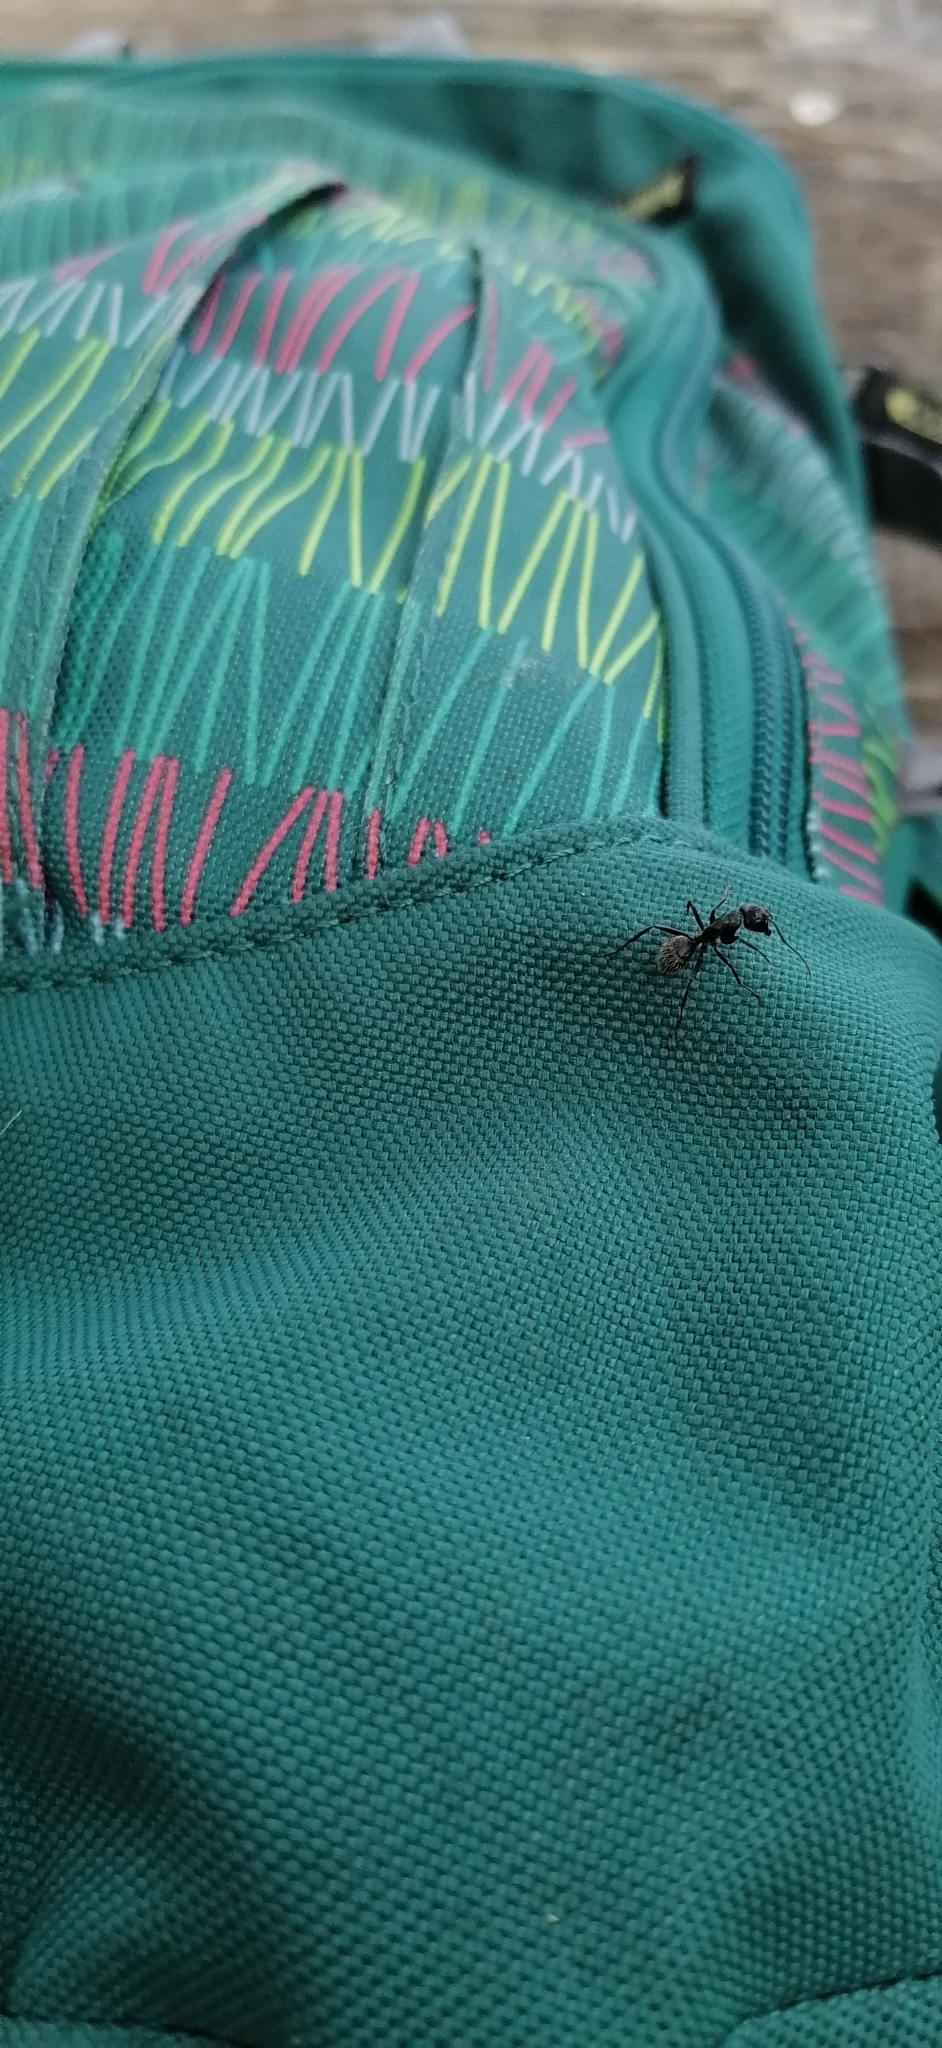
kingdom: Animalia
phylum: Arthropoda
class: Insecta
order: Hymenoptera
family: Formicidae
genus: Camponotus
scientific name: Camponotus vagus
